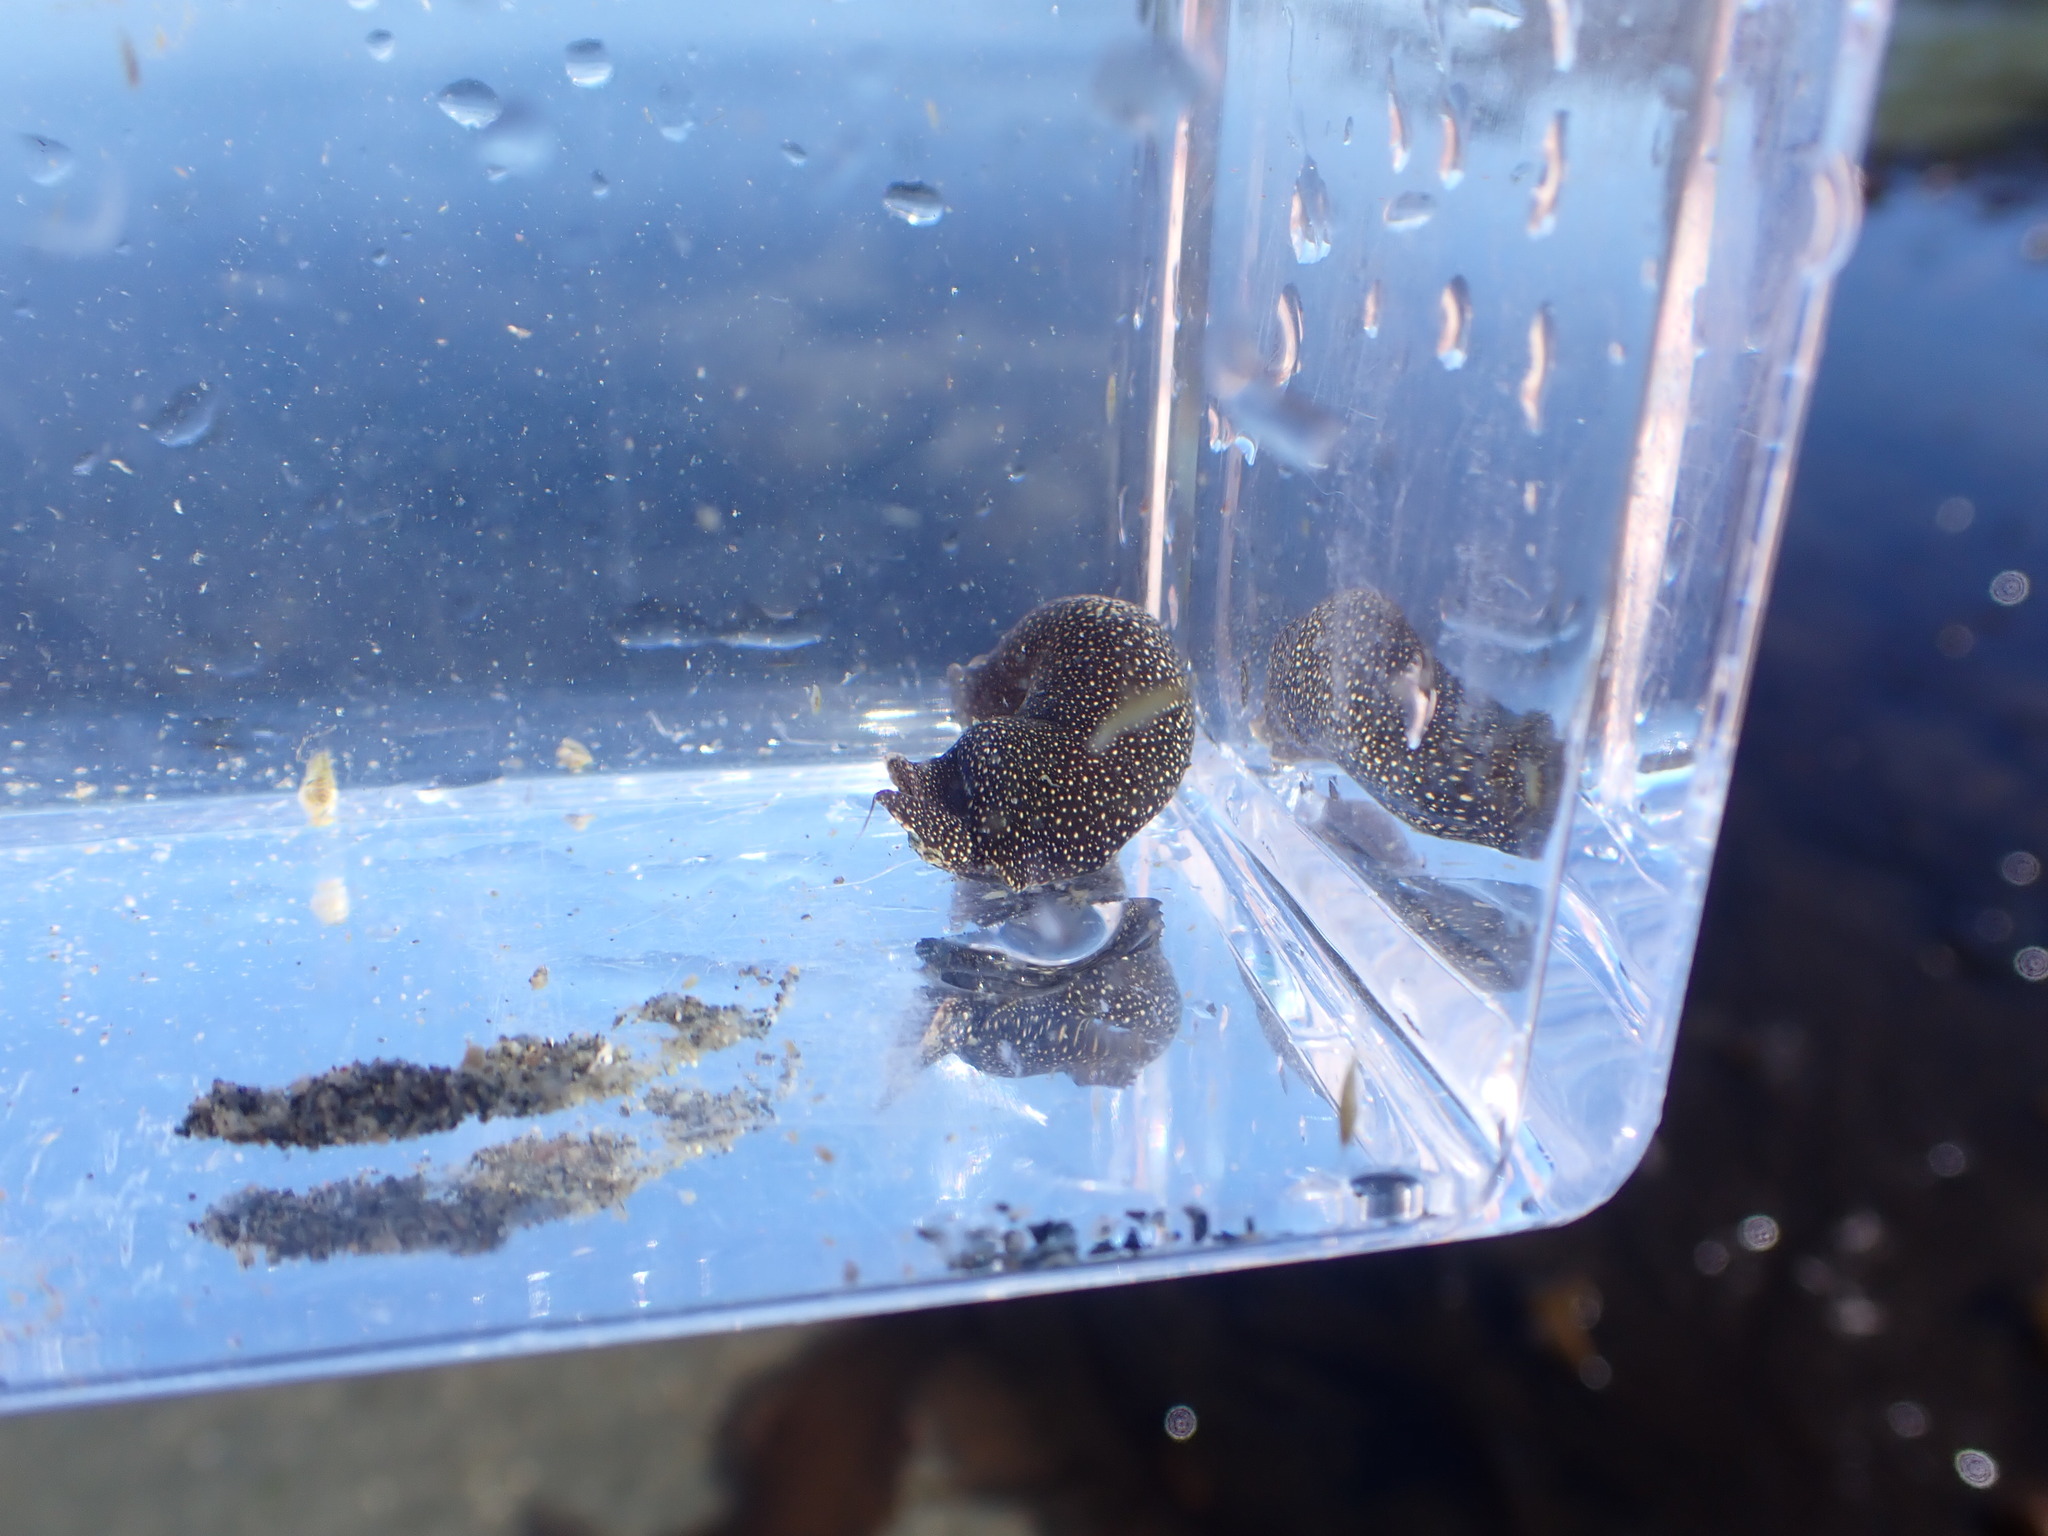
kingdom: Animalia
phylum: Mollusca
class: Gastropoda
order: Cephalaspidea
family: Aglajidae
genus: Aglaja
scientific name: Aglaja ocelligera
